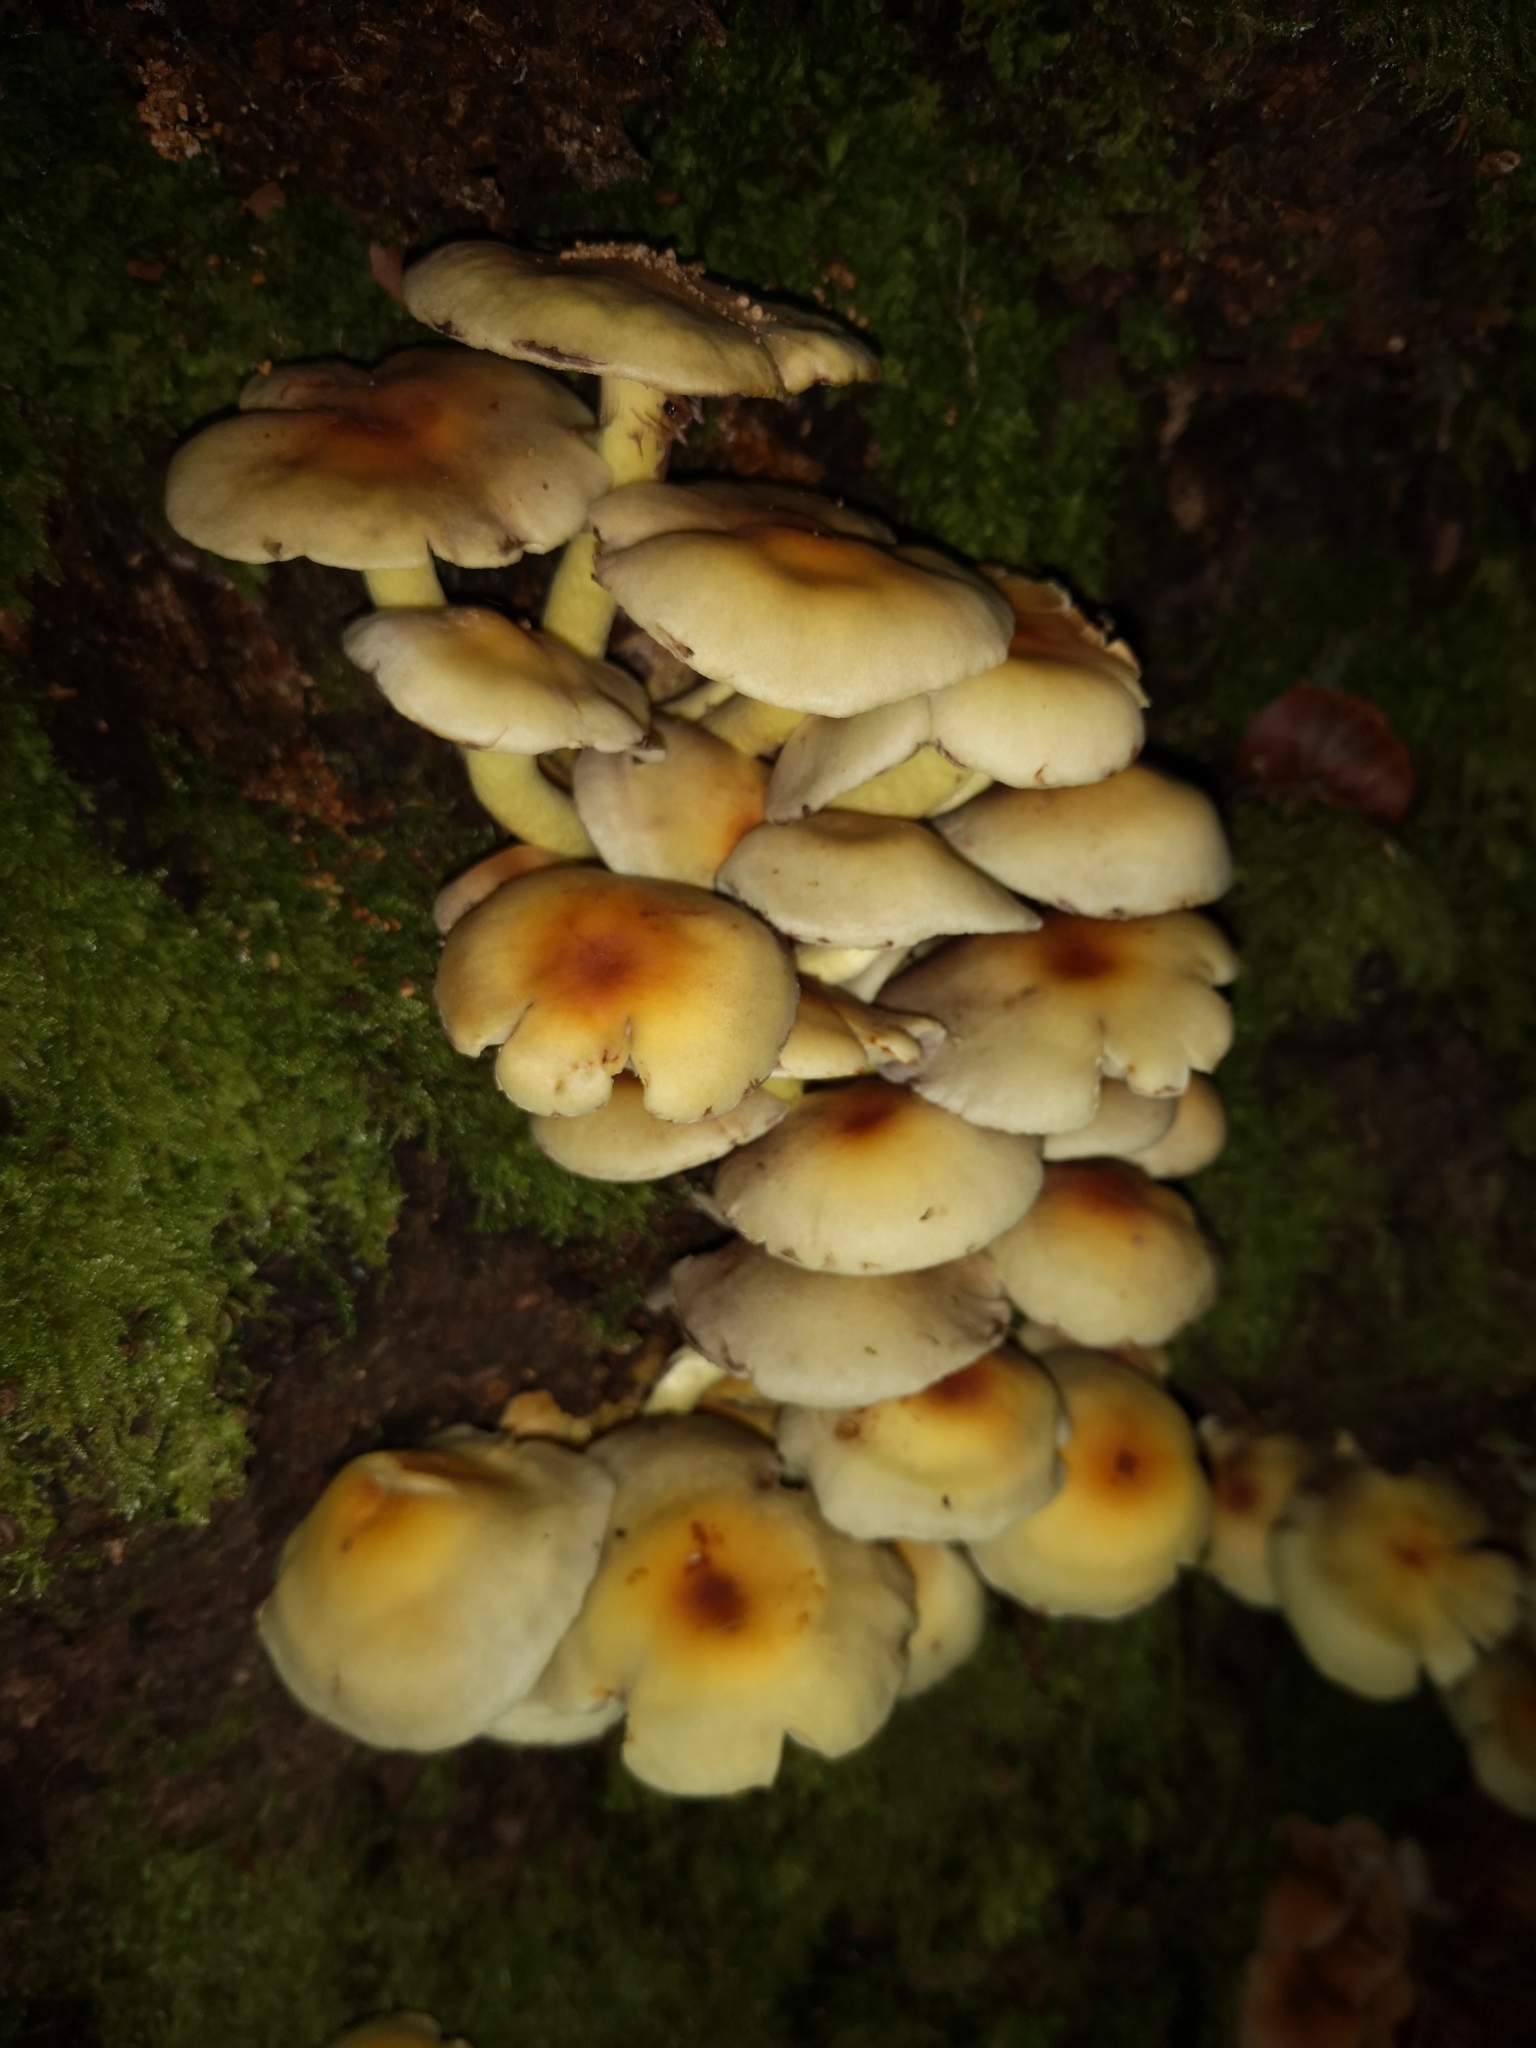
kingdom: Fungi
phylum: Basidiomycota
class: Agaricomycetes
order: Agaricales
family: Strophariaceae
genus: Hypholoma
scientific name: Hypholoma fasciculare
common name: Sulphur tuft
